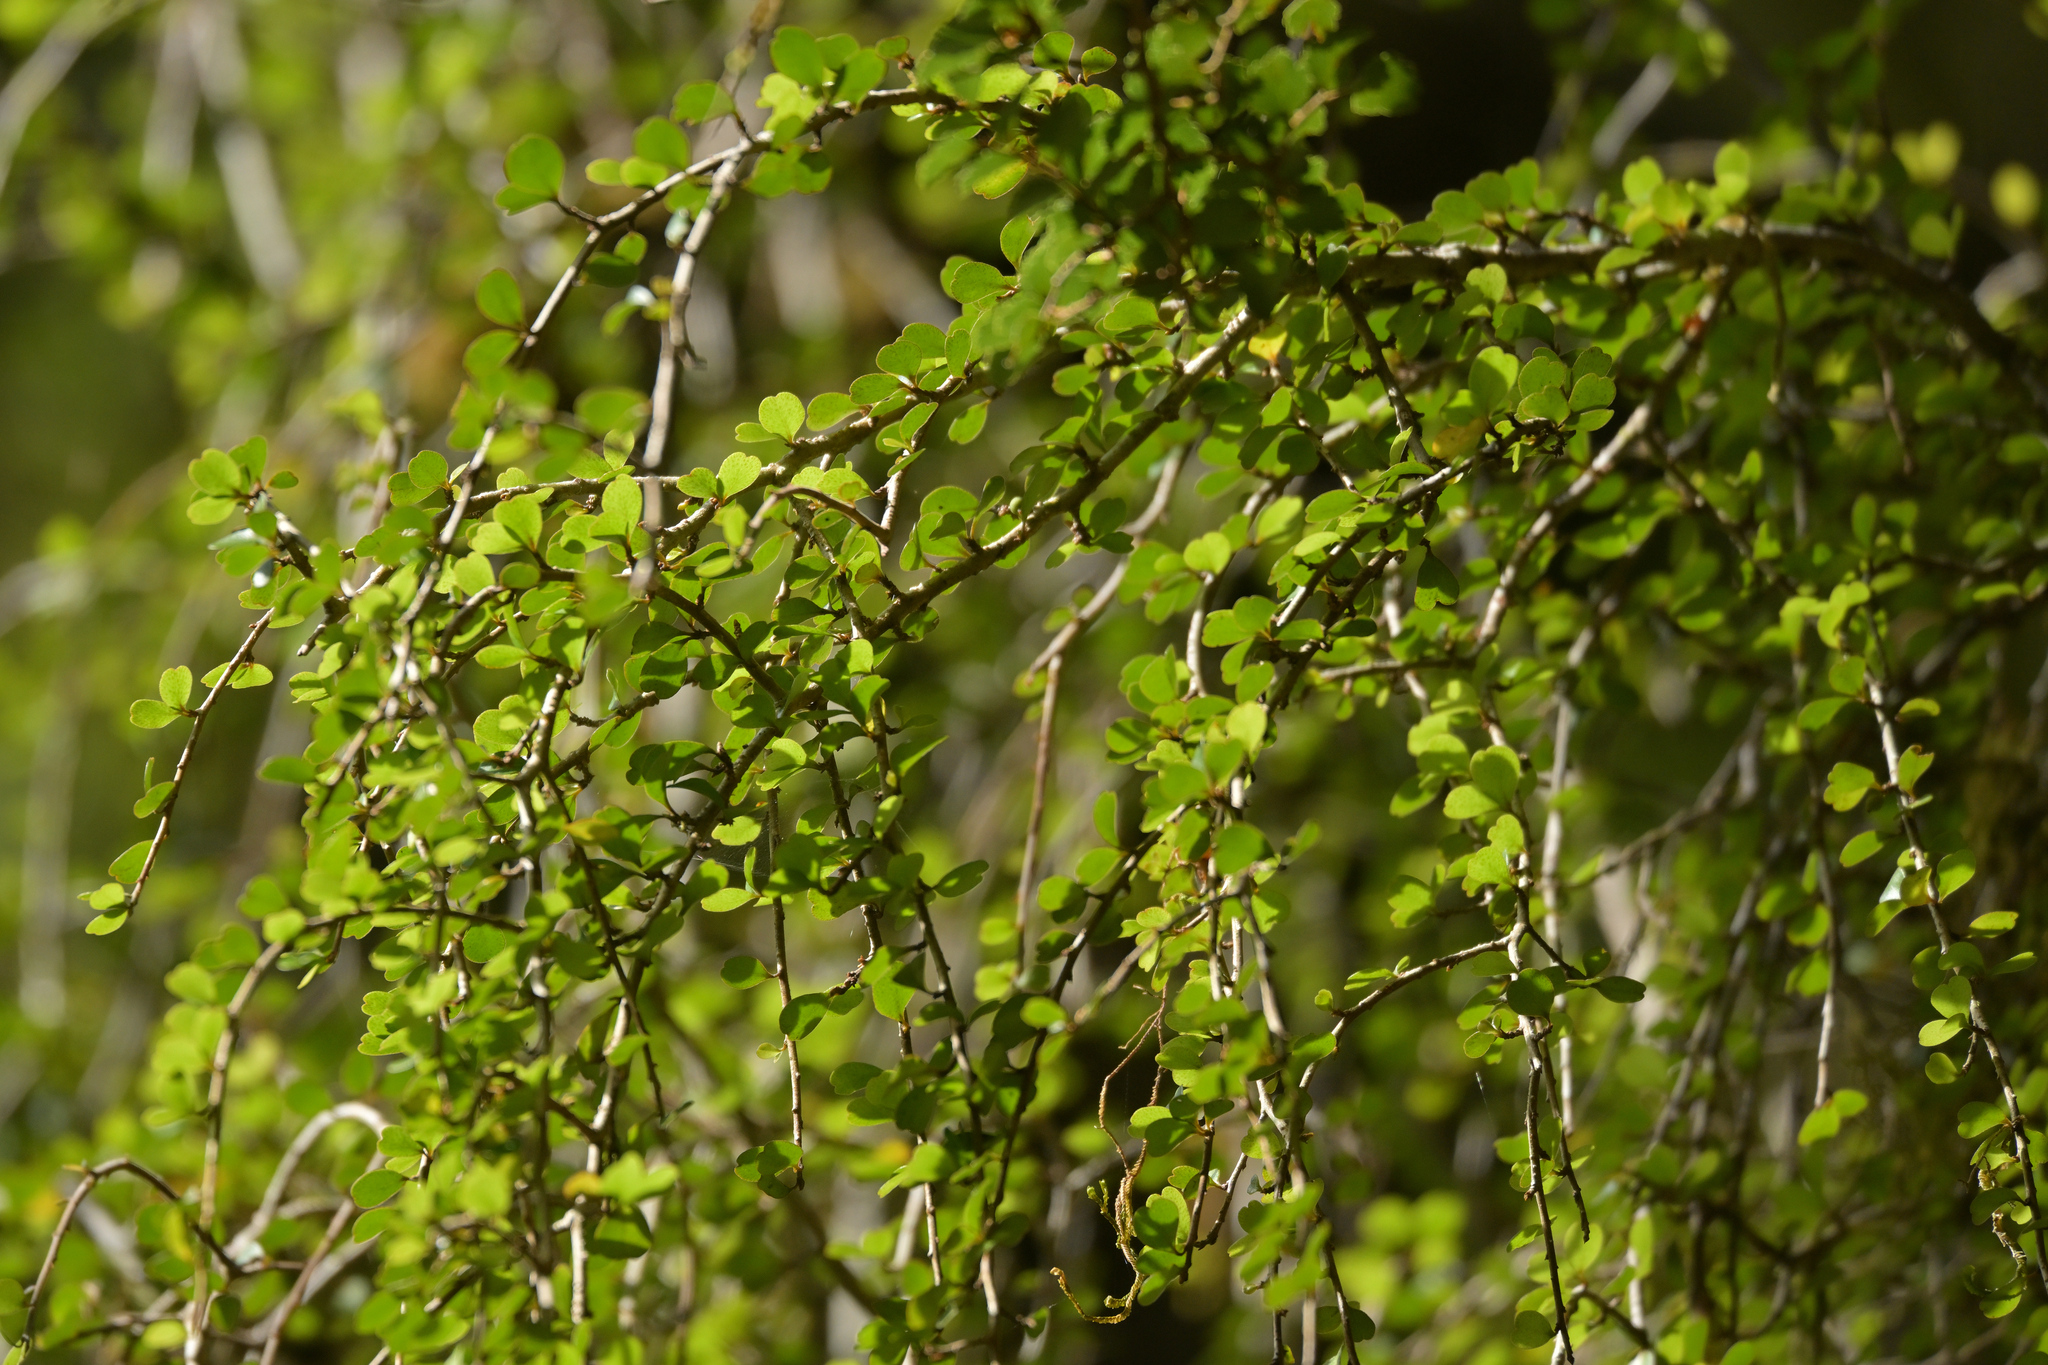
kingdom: Plantae
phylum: Tracheophyta
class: Magnoliopsida
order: Ericales
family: Primulaceae
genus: Myrsine
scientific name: Myrsine divaricata
